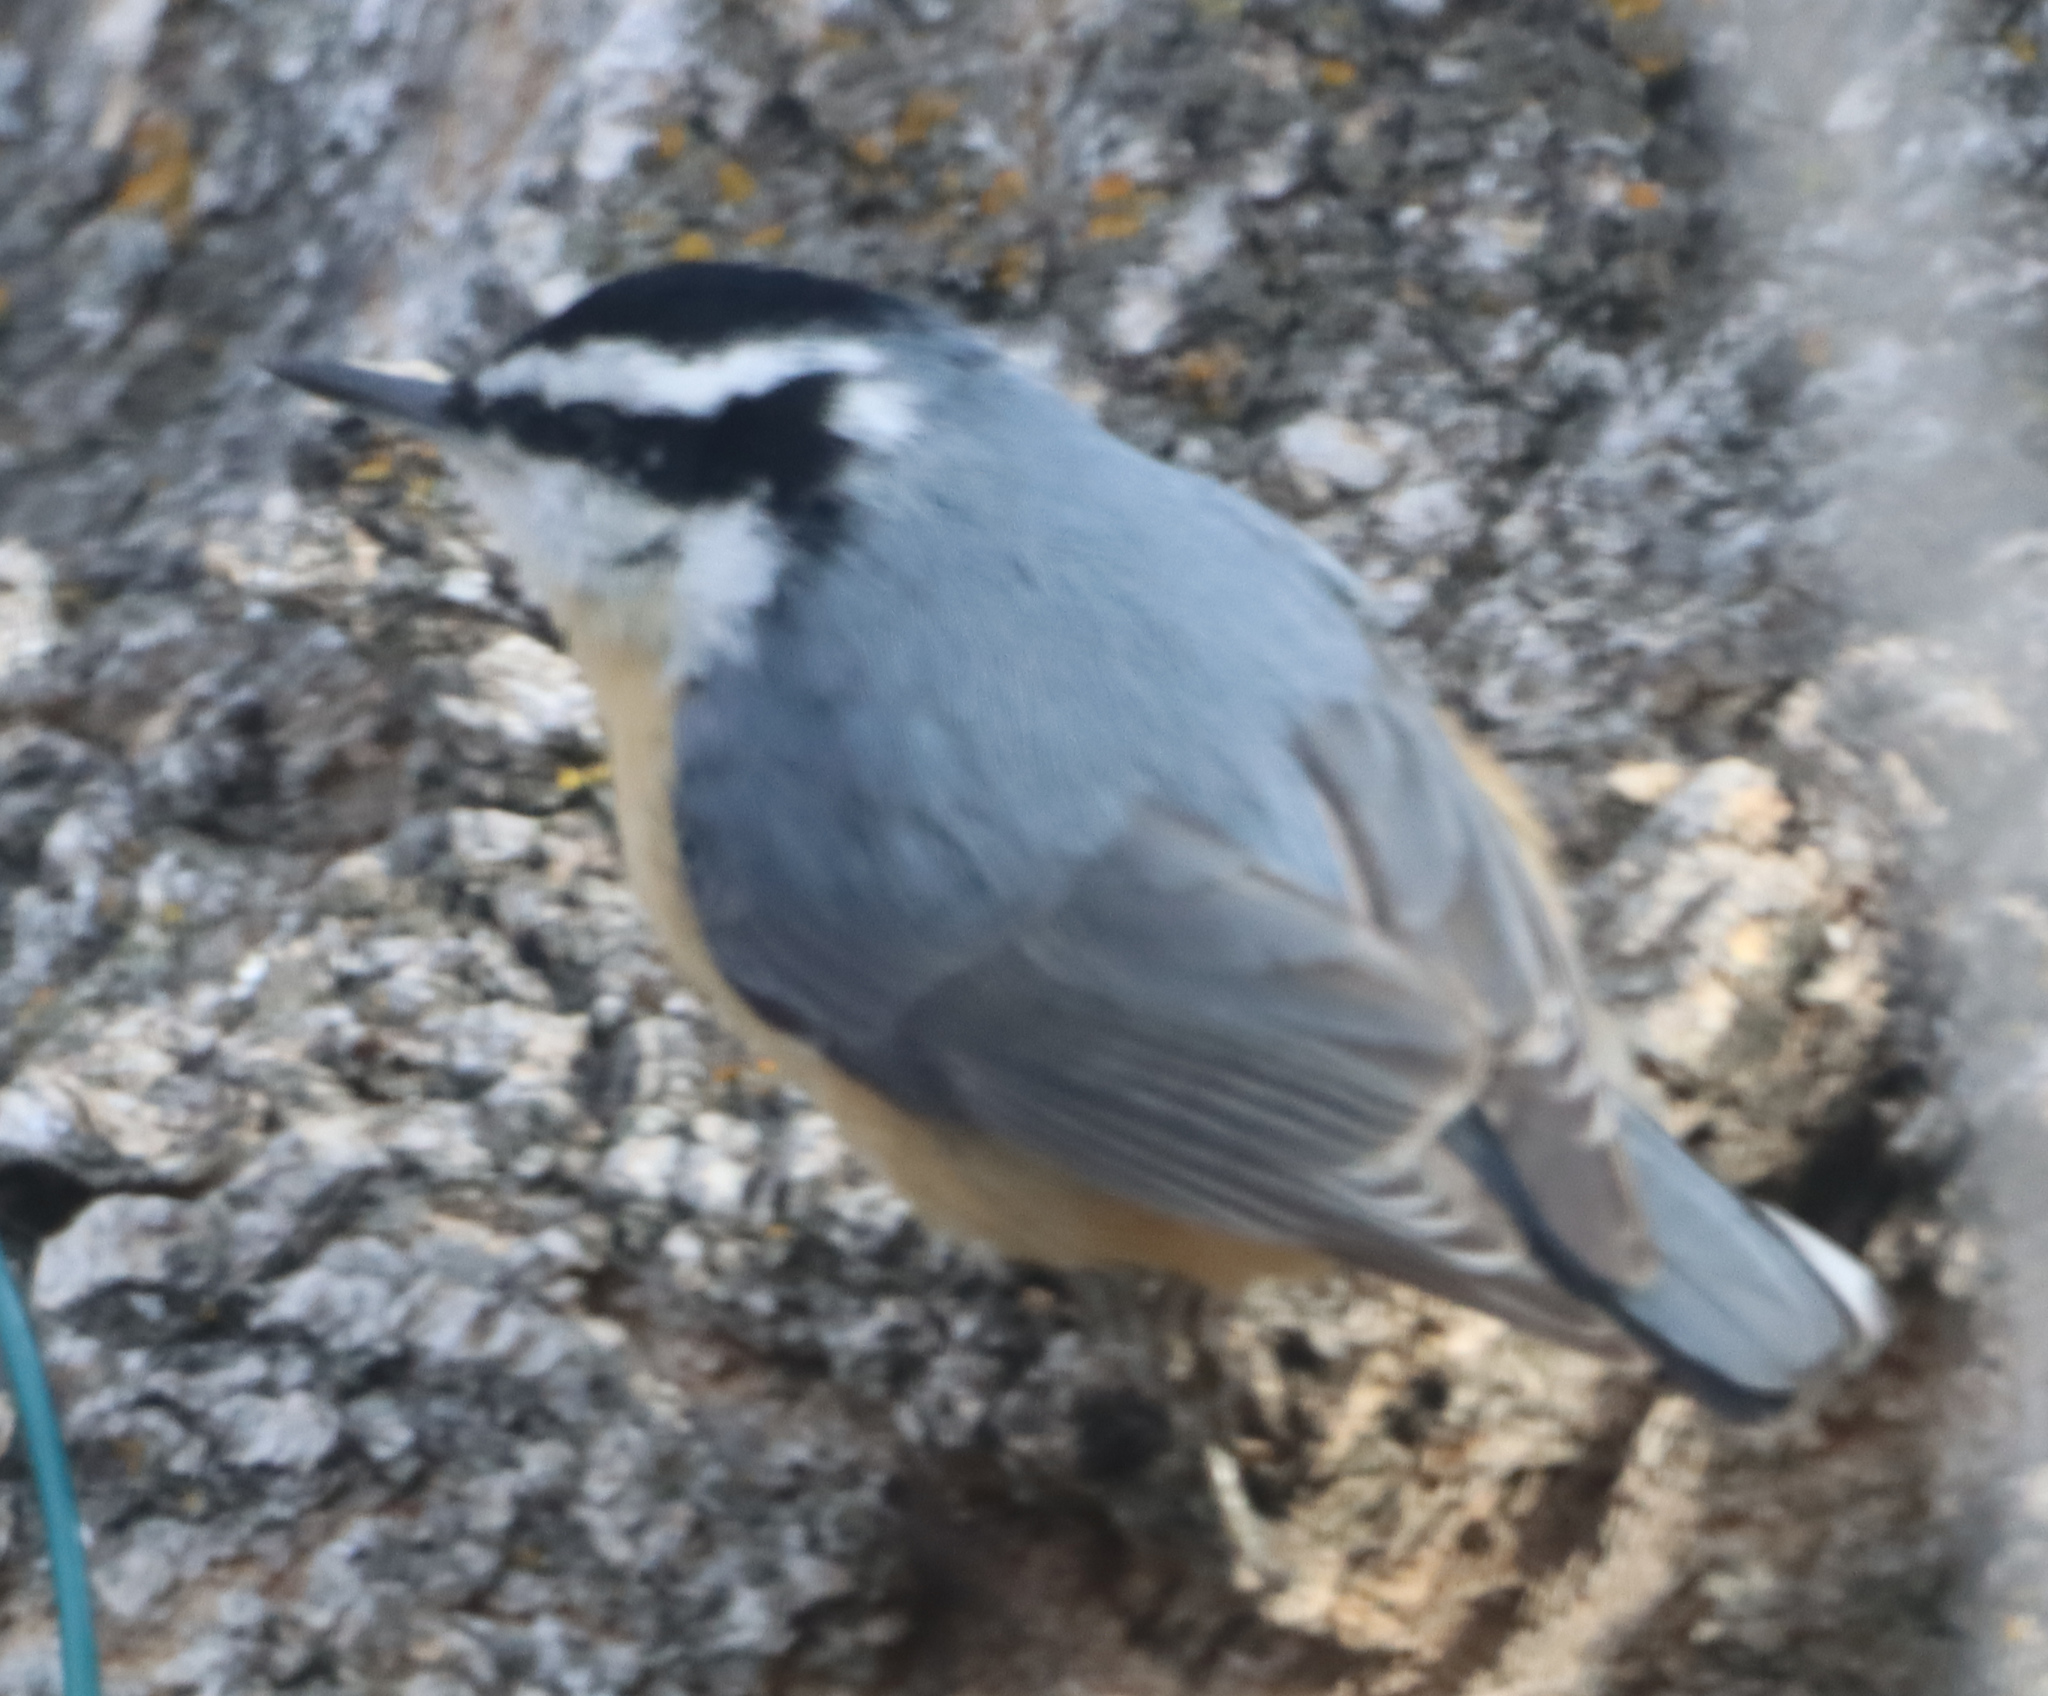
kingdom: Animalia
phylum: Chordata
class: Aves
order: Passeriformes
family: Sittidae
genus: Sitta
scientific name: Sitta canadensis
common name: Red-breasted nuthatch
